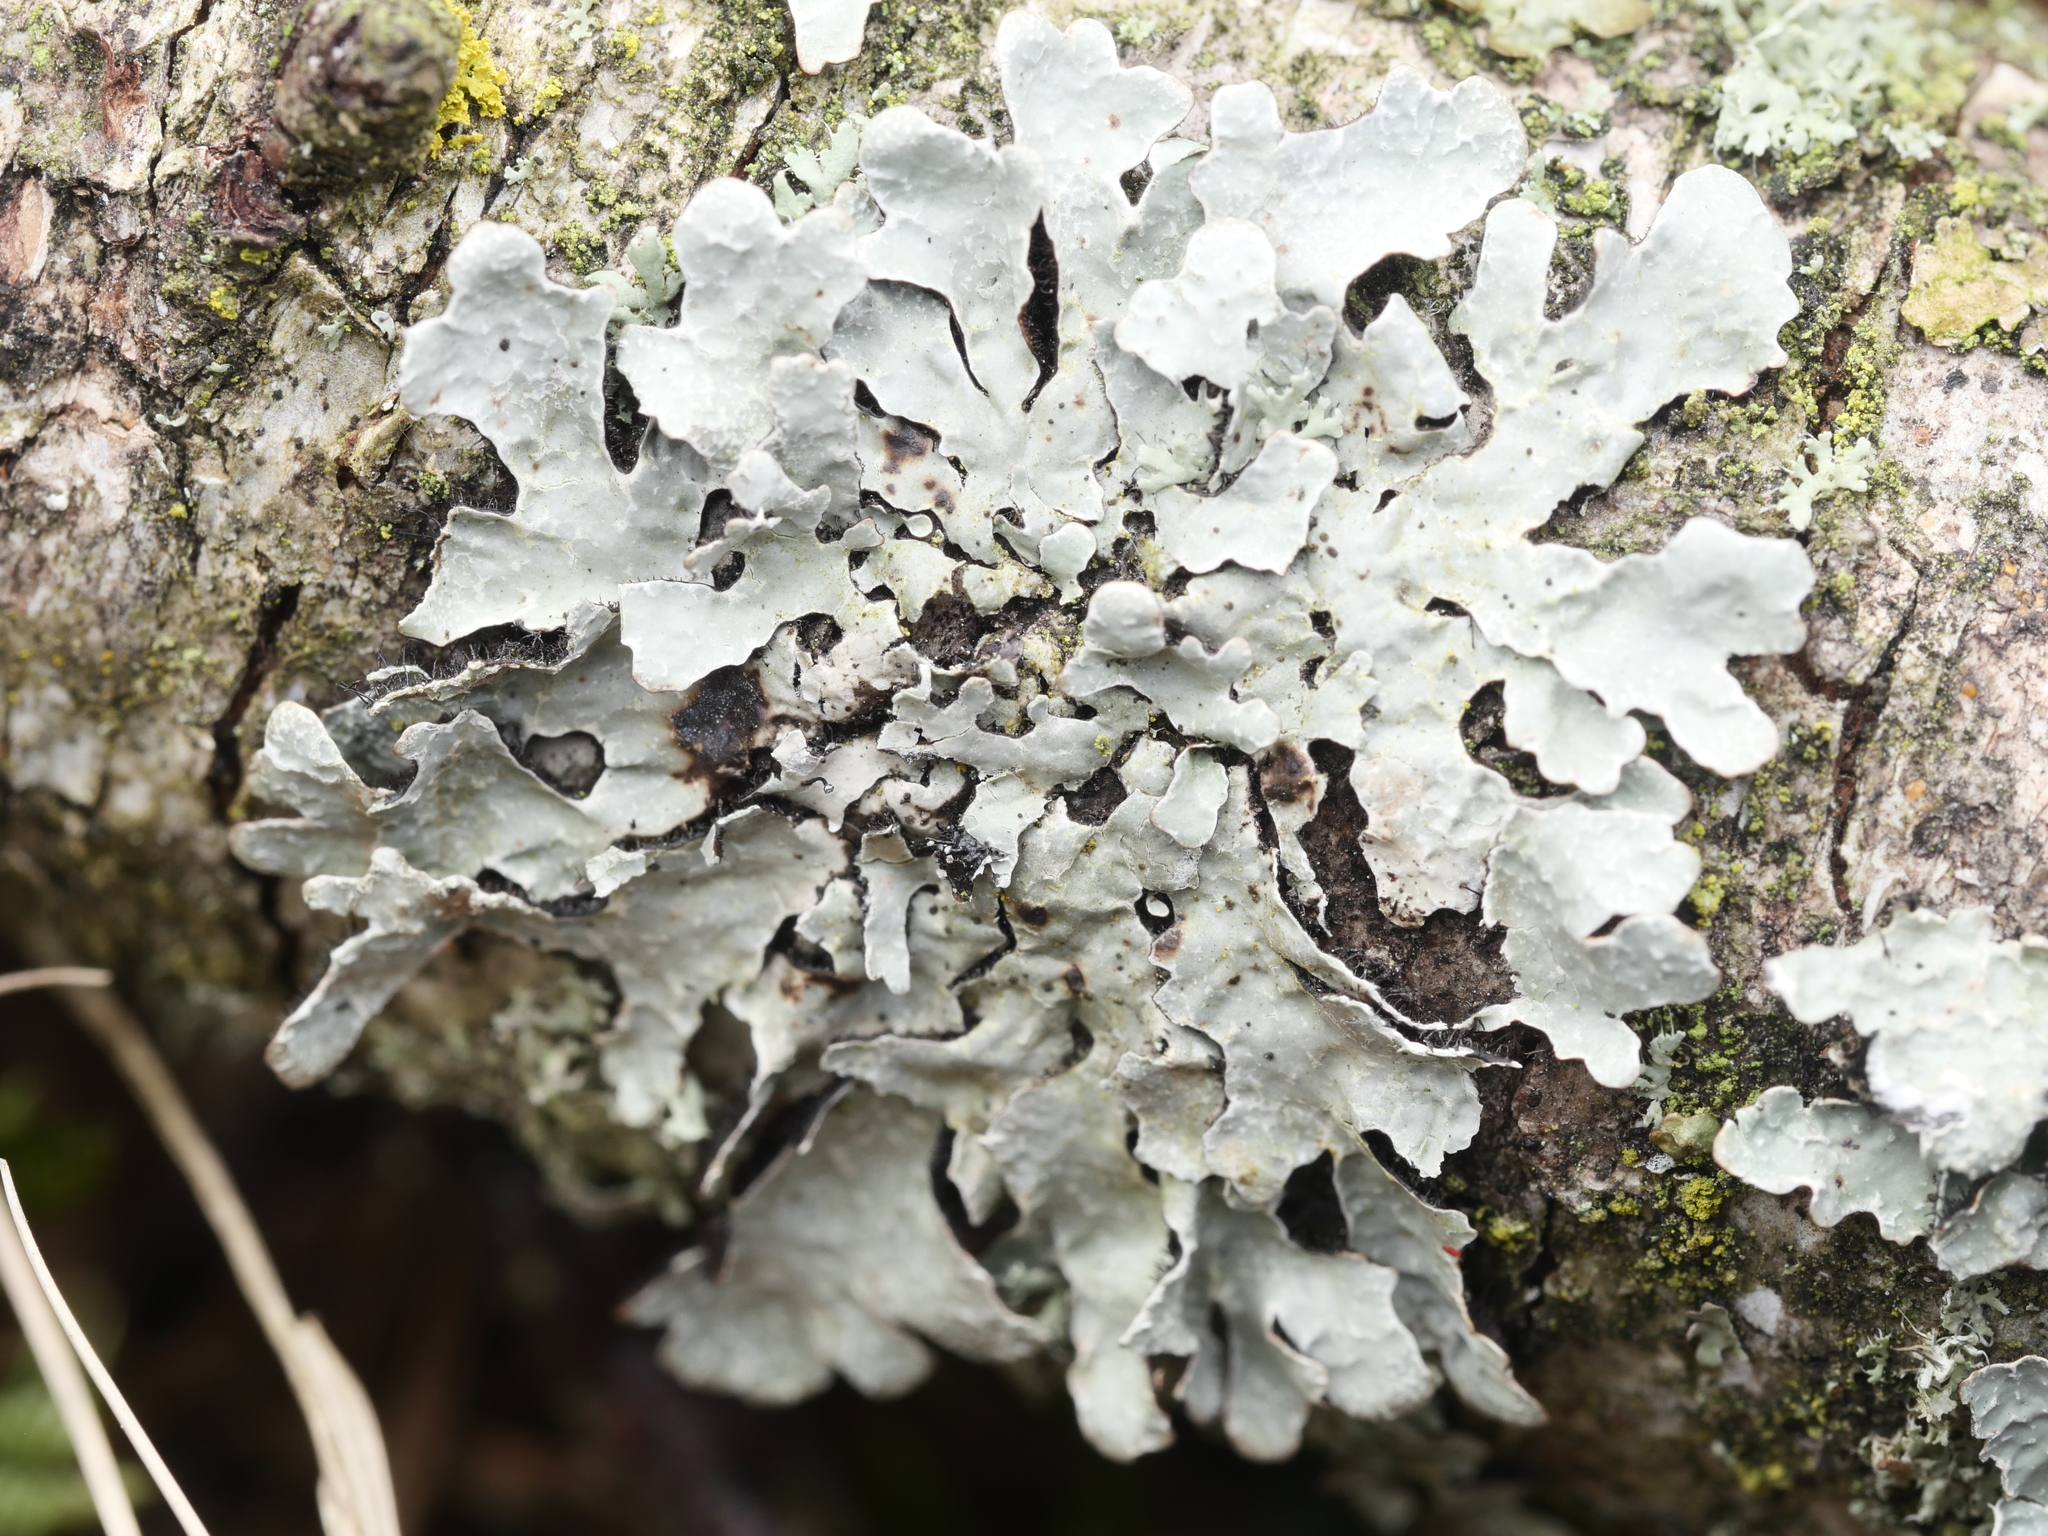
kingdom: Fungi
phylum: Ascomycota
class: Lecanoromycetes
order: Lecanorales
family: Parmeliaceae
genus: Parmelia
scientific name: Parmelia sulcata
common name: Netted shield lichen
